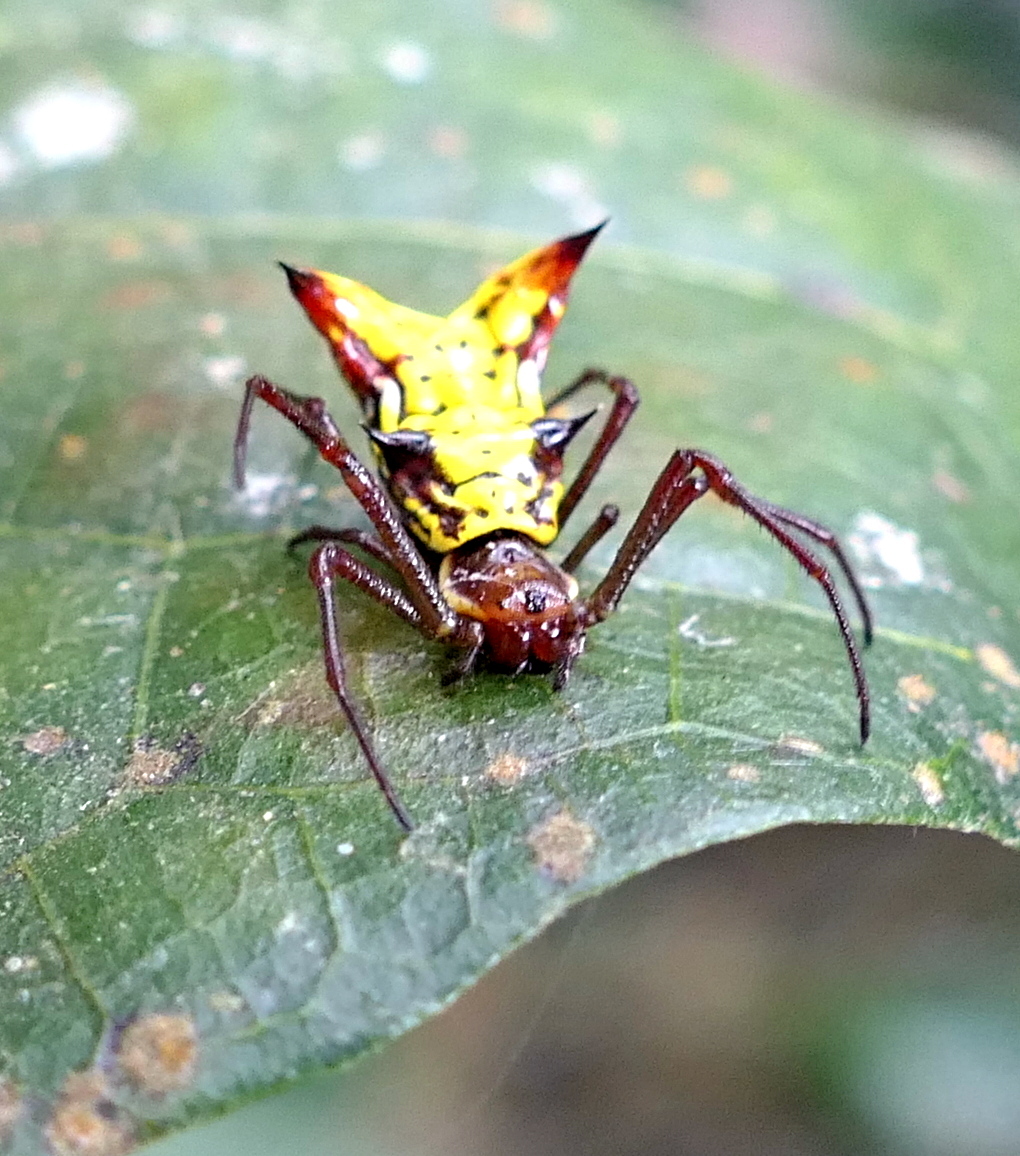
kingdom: Animalia
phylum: Arthropoda
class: Arachnida
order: Araneae
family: Araneidae
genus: Micrathena
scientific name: Micrathena fissispina
